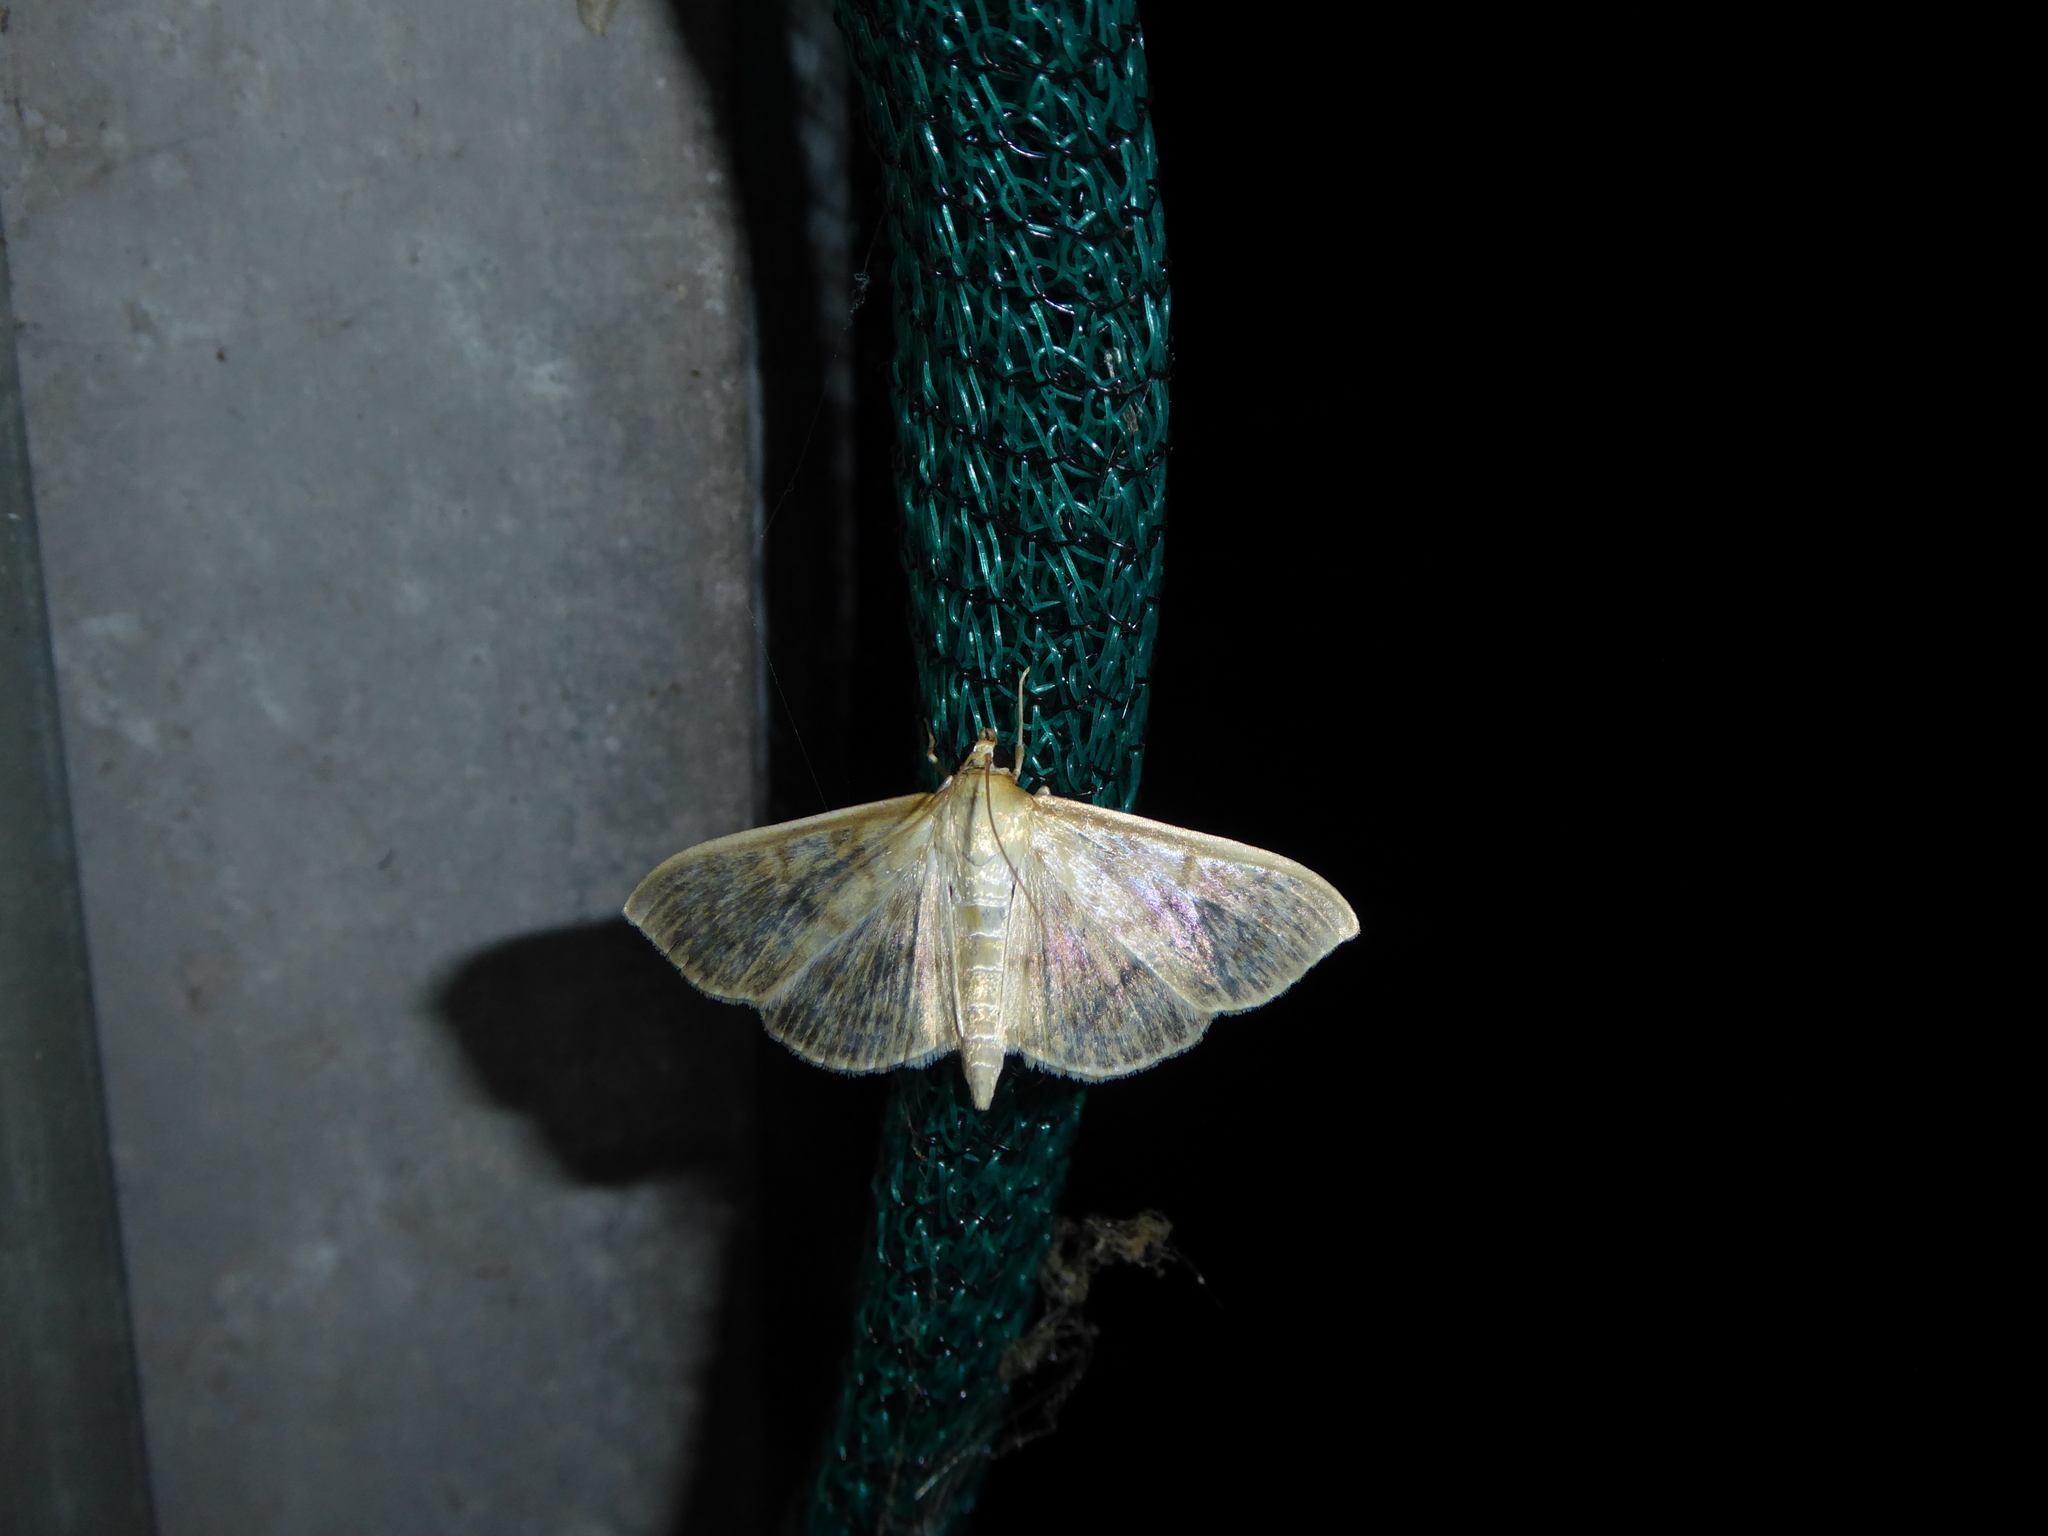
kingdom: Animalia
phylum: Arthropoda
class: Insecta
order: Lepidoptera
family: Crambidae
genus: Patania
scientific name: Patania ruralis
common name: Mother of pearl
